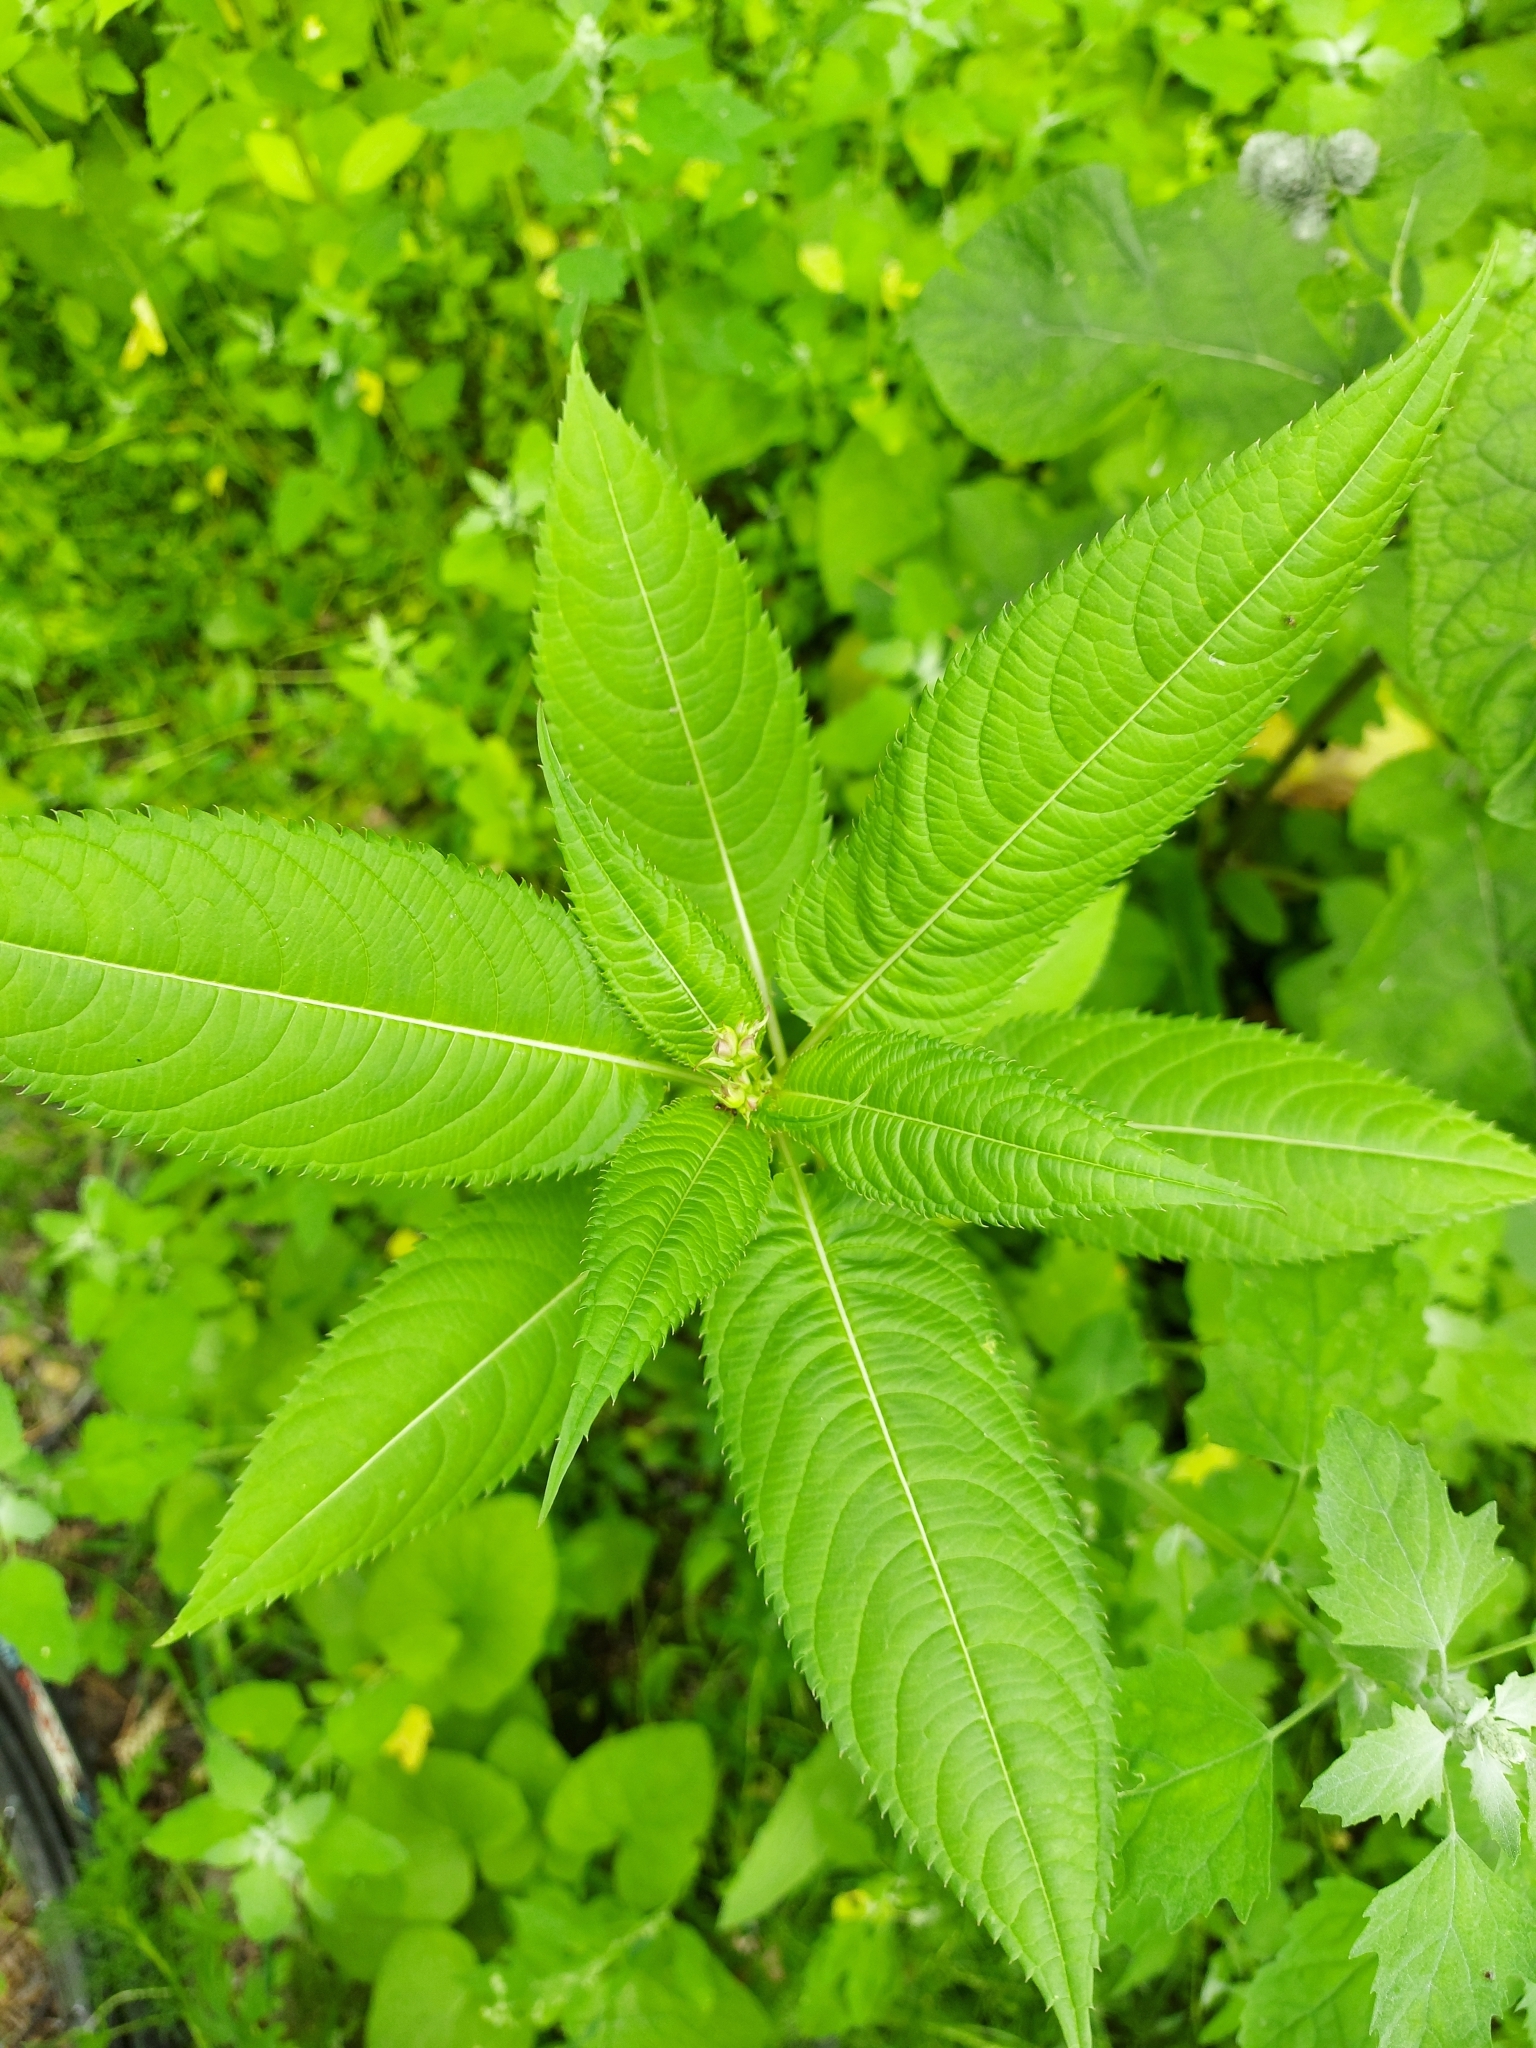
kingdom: Plantae
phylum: Tracheophyta
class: Magnoliopsida
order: Ericales
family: Balsaminaceae
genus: Impatiens
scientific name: Impatiens glandulifera
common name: Himalayan balsam
